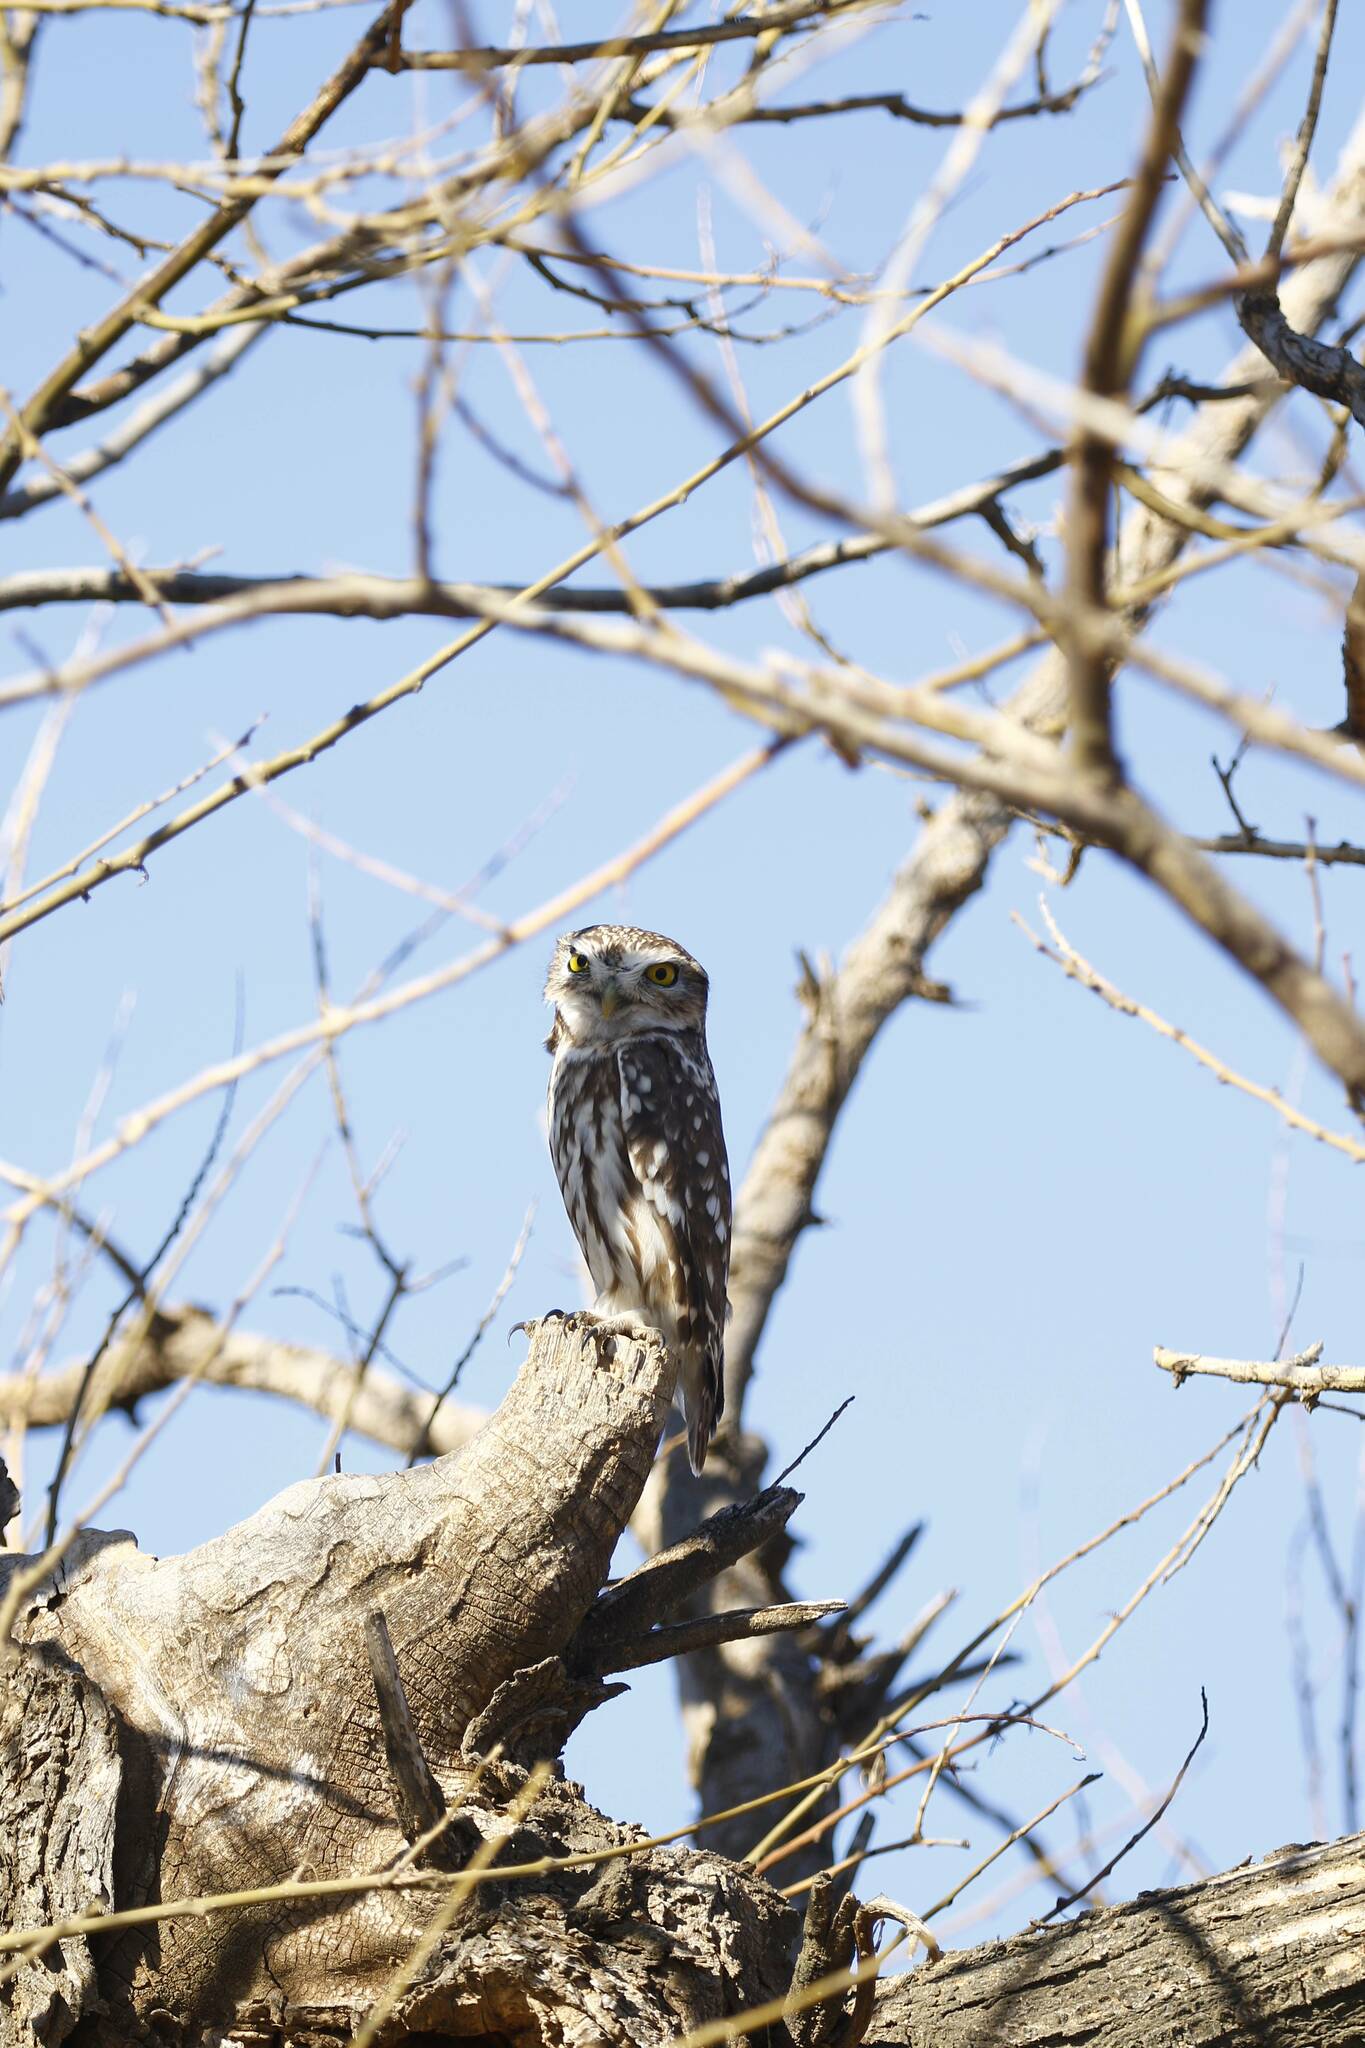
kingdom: Animalia
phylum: Chordata
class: Aves
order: Strigiformes
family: Strigidae
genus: Athene
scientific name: Athene noctua
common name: Little owl
